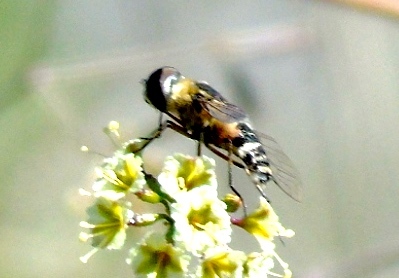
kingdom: Animalia
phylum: Arthropoda
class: Insecta
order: Diptera
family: Bombyliidae
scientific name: Bombyliidae
